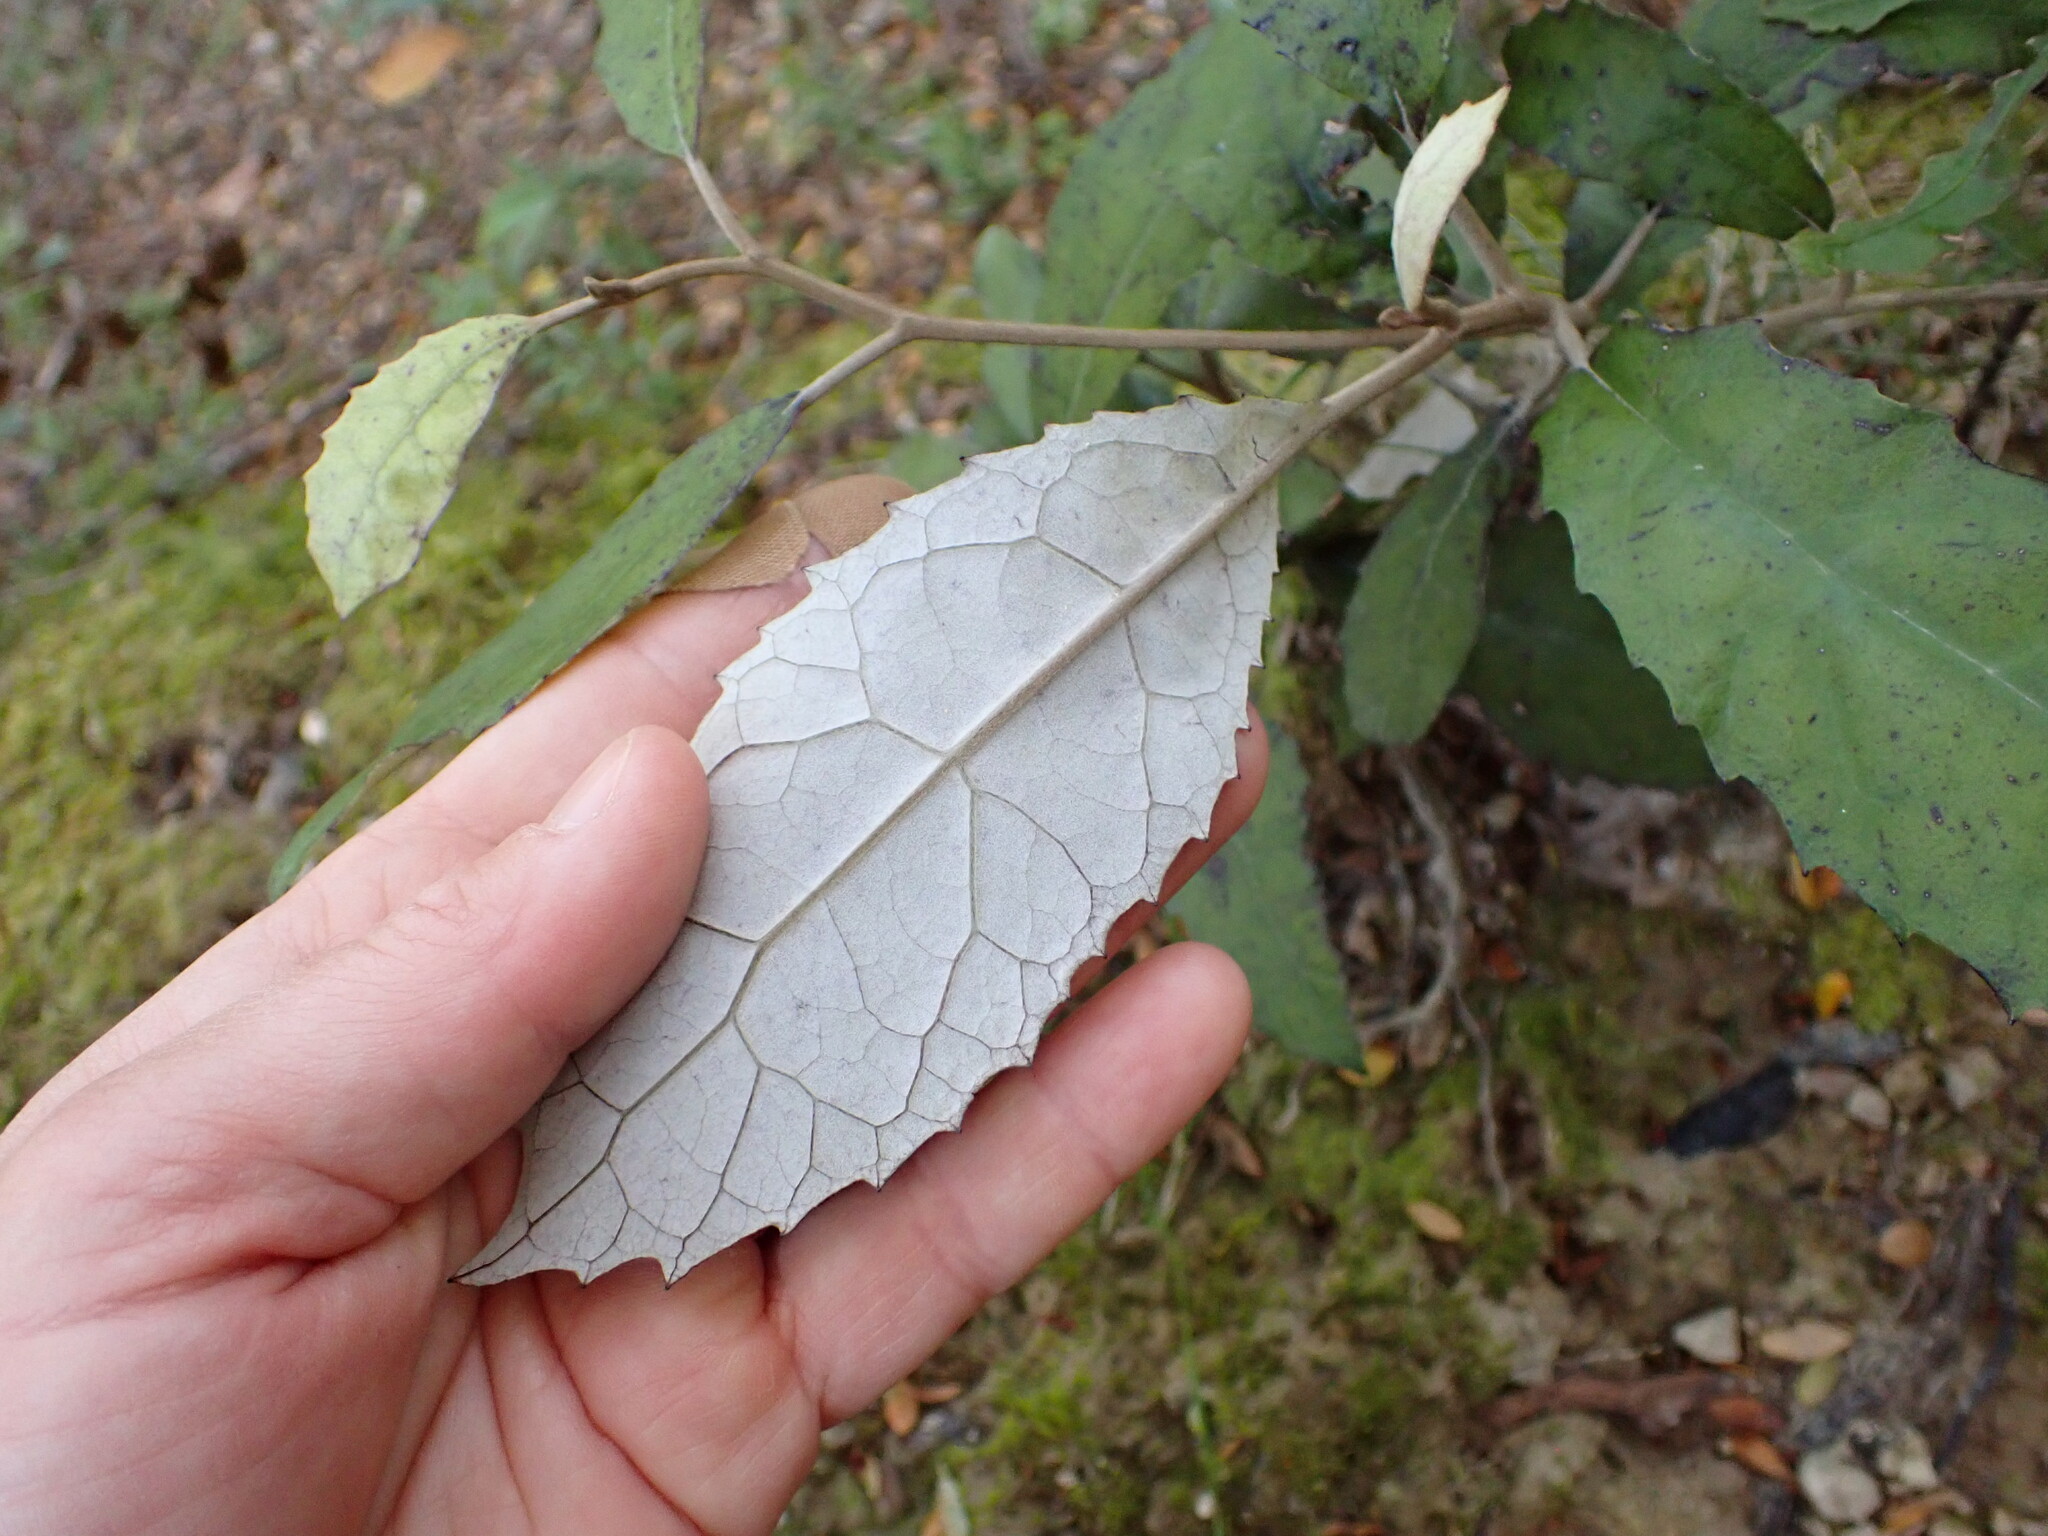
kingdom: Plantae
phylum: Tracheophyta
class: Magnoliopsida
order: Asterales
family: Asteraceae
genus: Olearia
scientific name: Olearia rani
